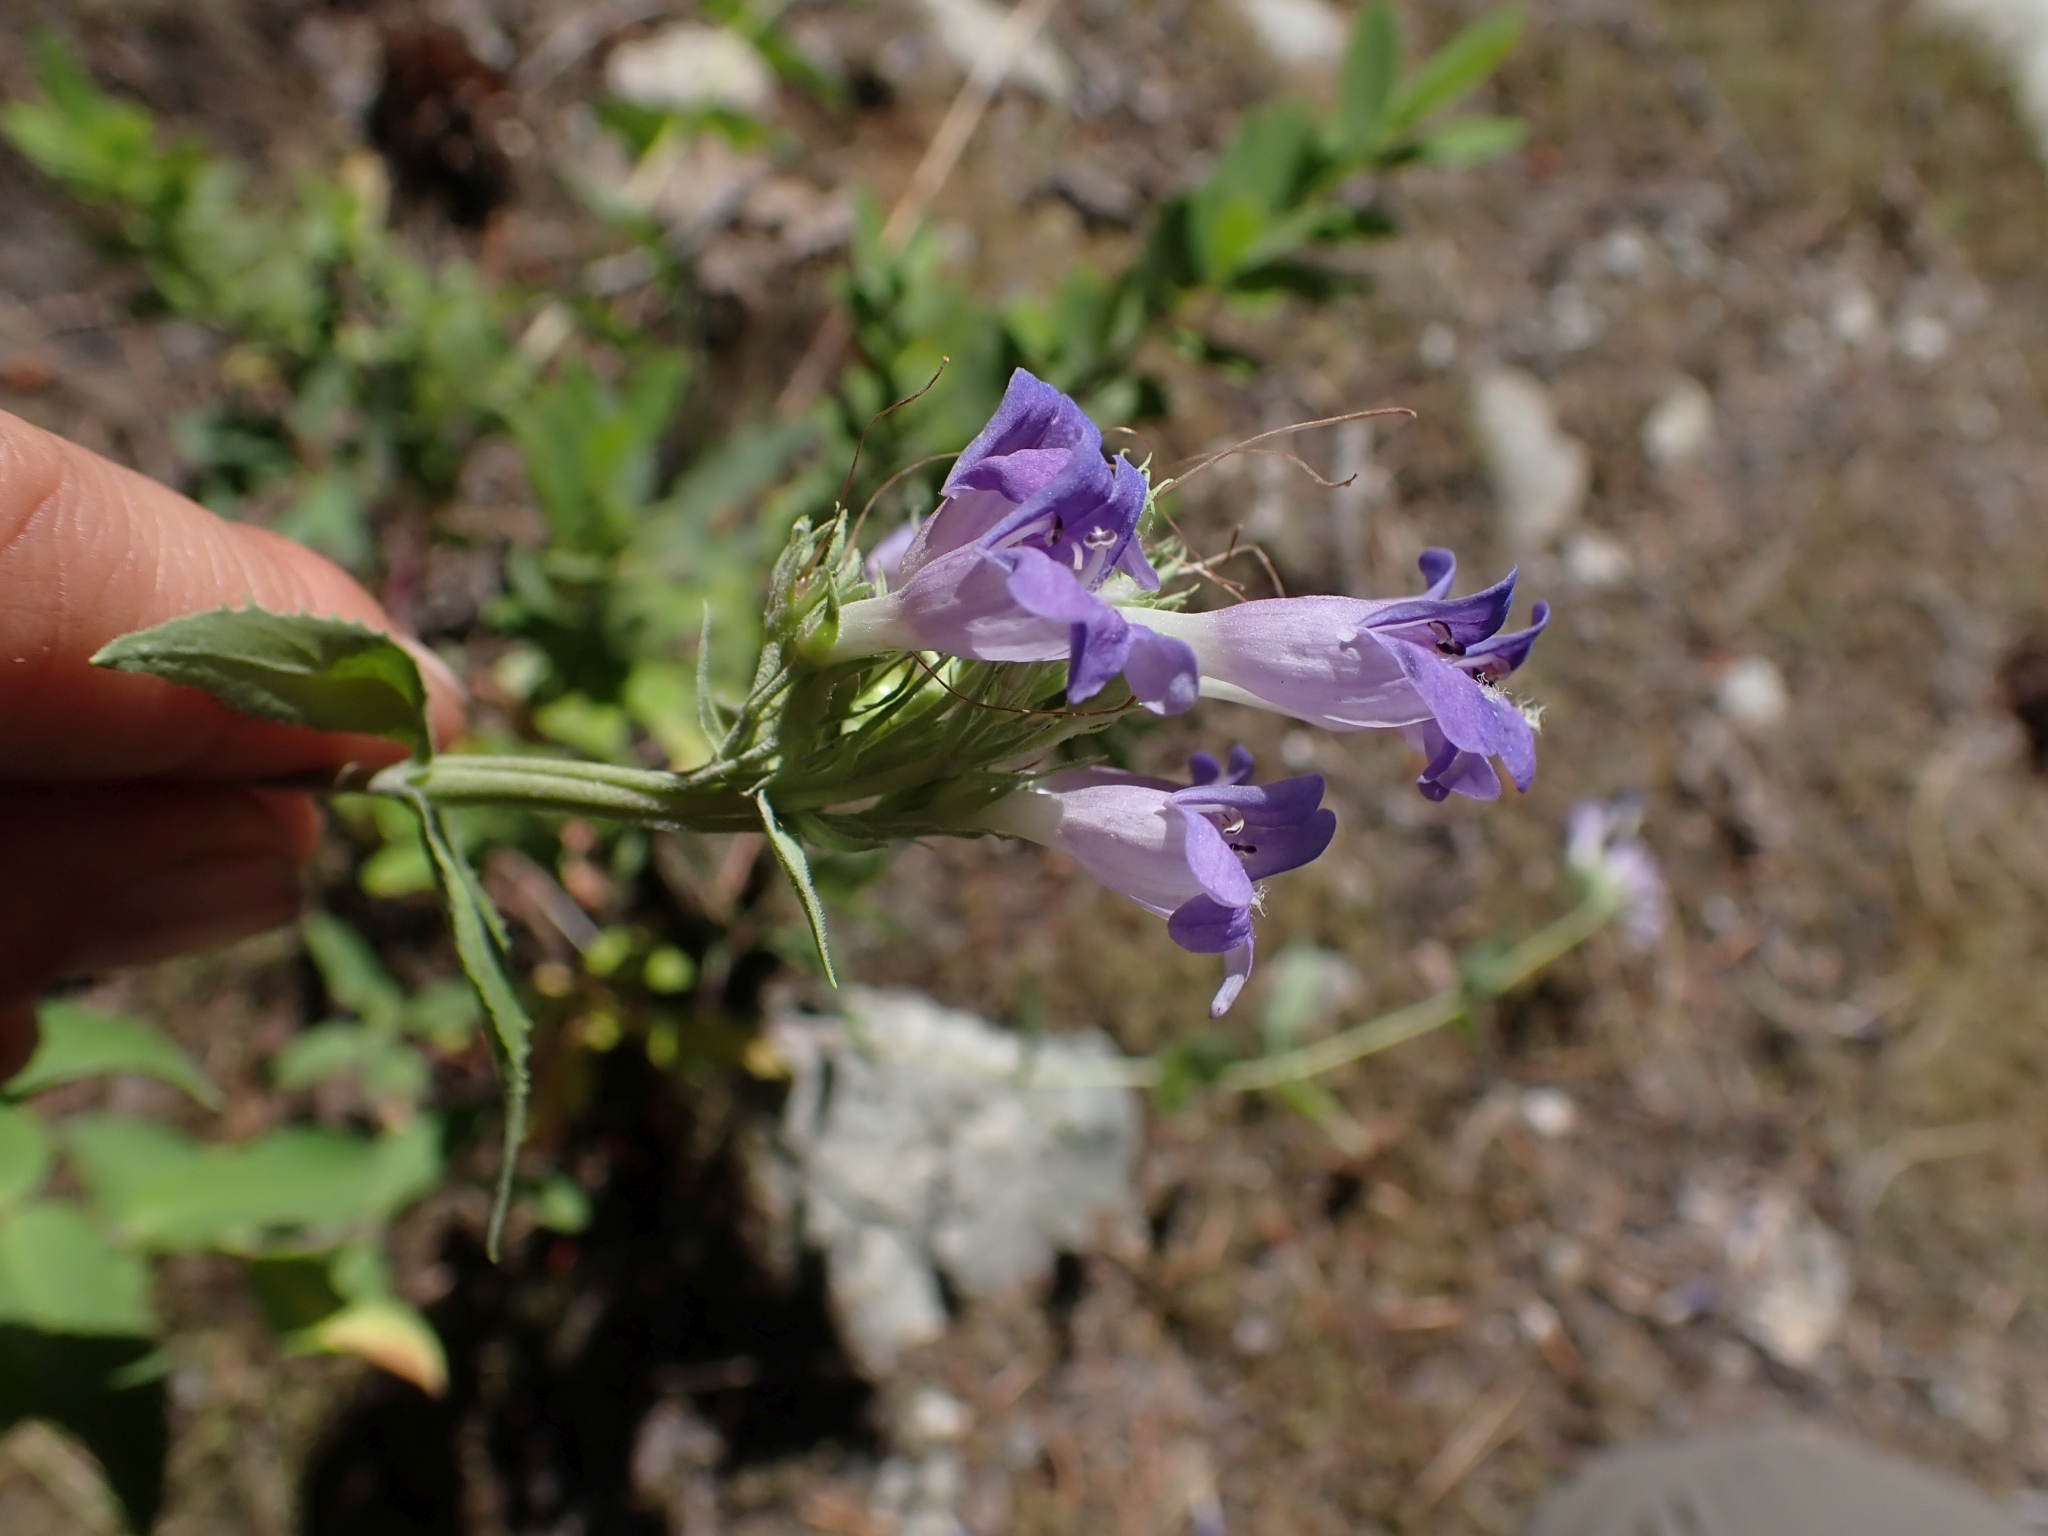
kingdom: Plantae
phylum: Tracheophyta
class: Magnoliopsida
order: Lamiales
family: Plantaginaceae
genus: Penstemon
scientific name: Penstemon serrulatus
